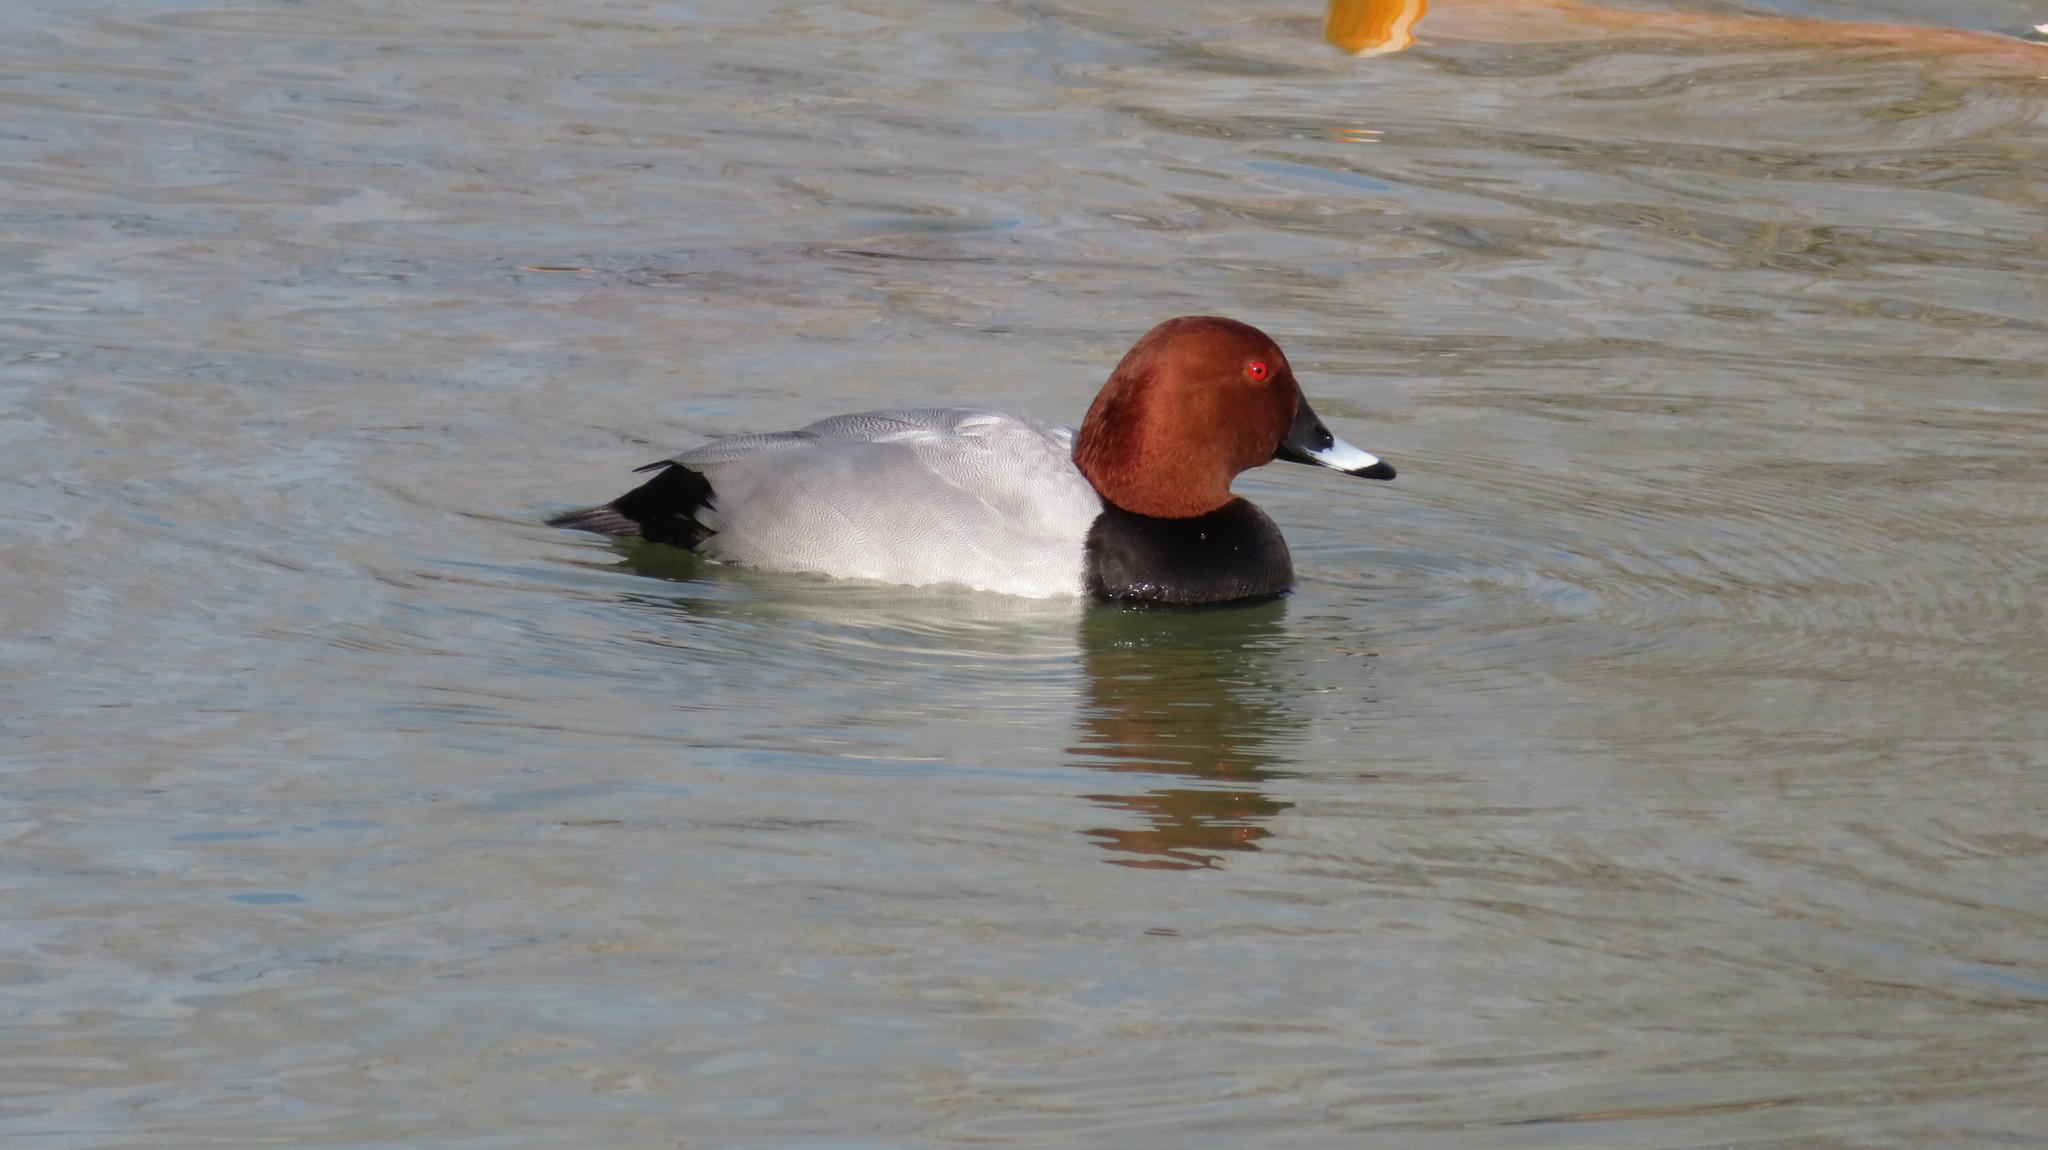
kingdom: Animalia
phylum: Chordata
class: Aves
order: Anseriformes
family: Anatidae
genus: Aythya
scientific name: Aythya ferina
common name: Common pochard
